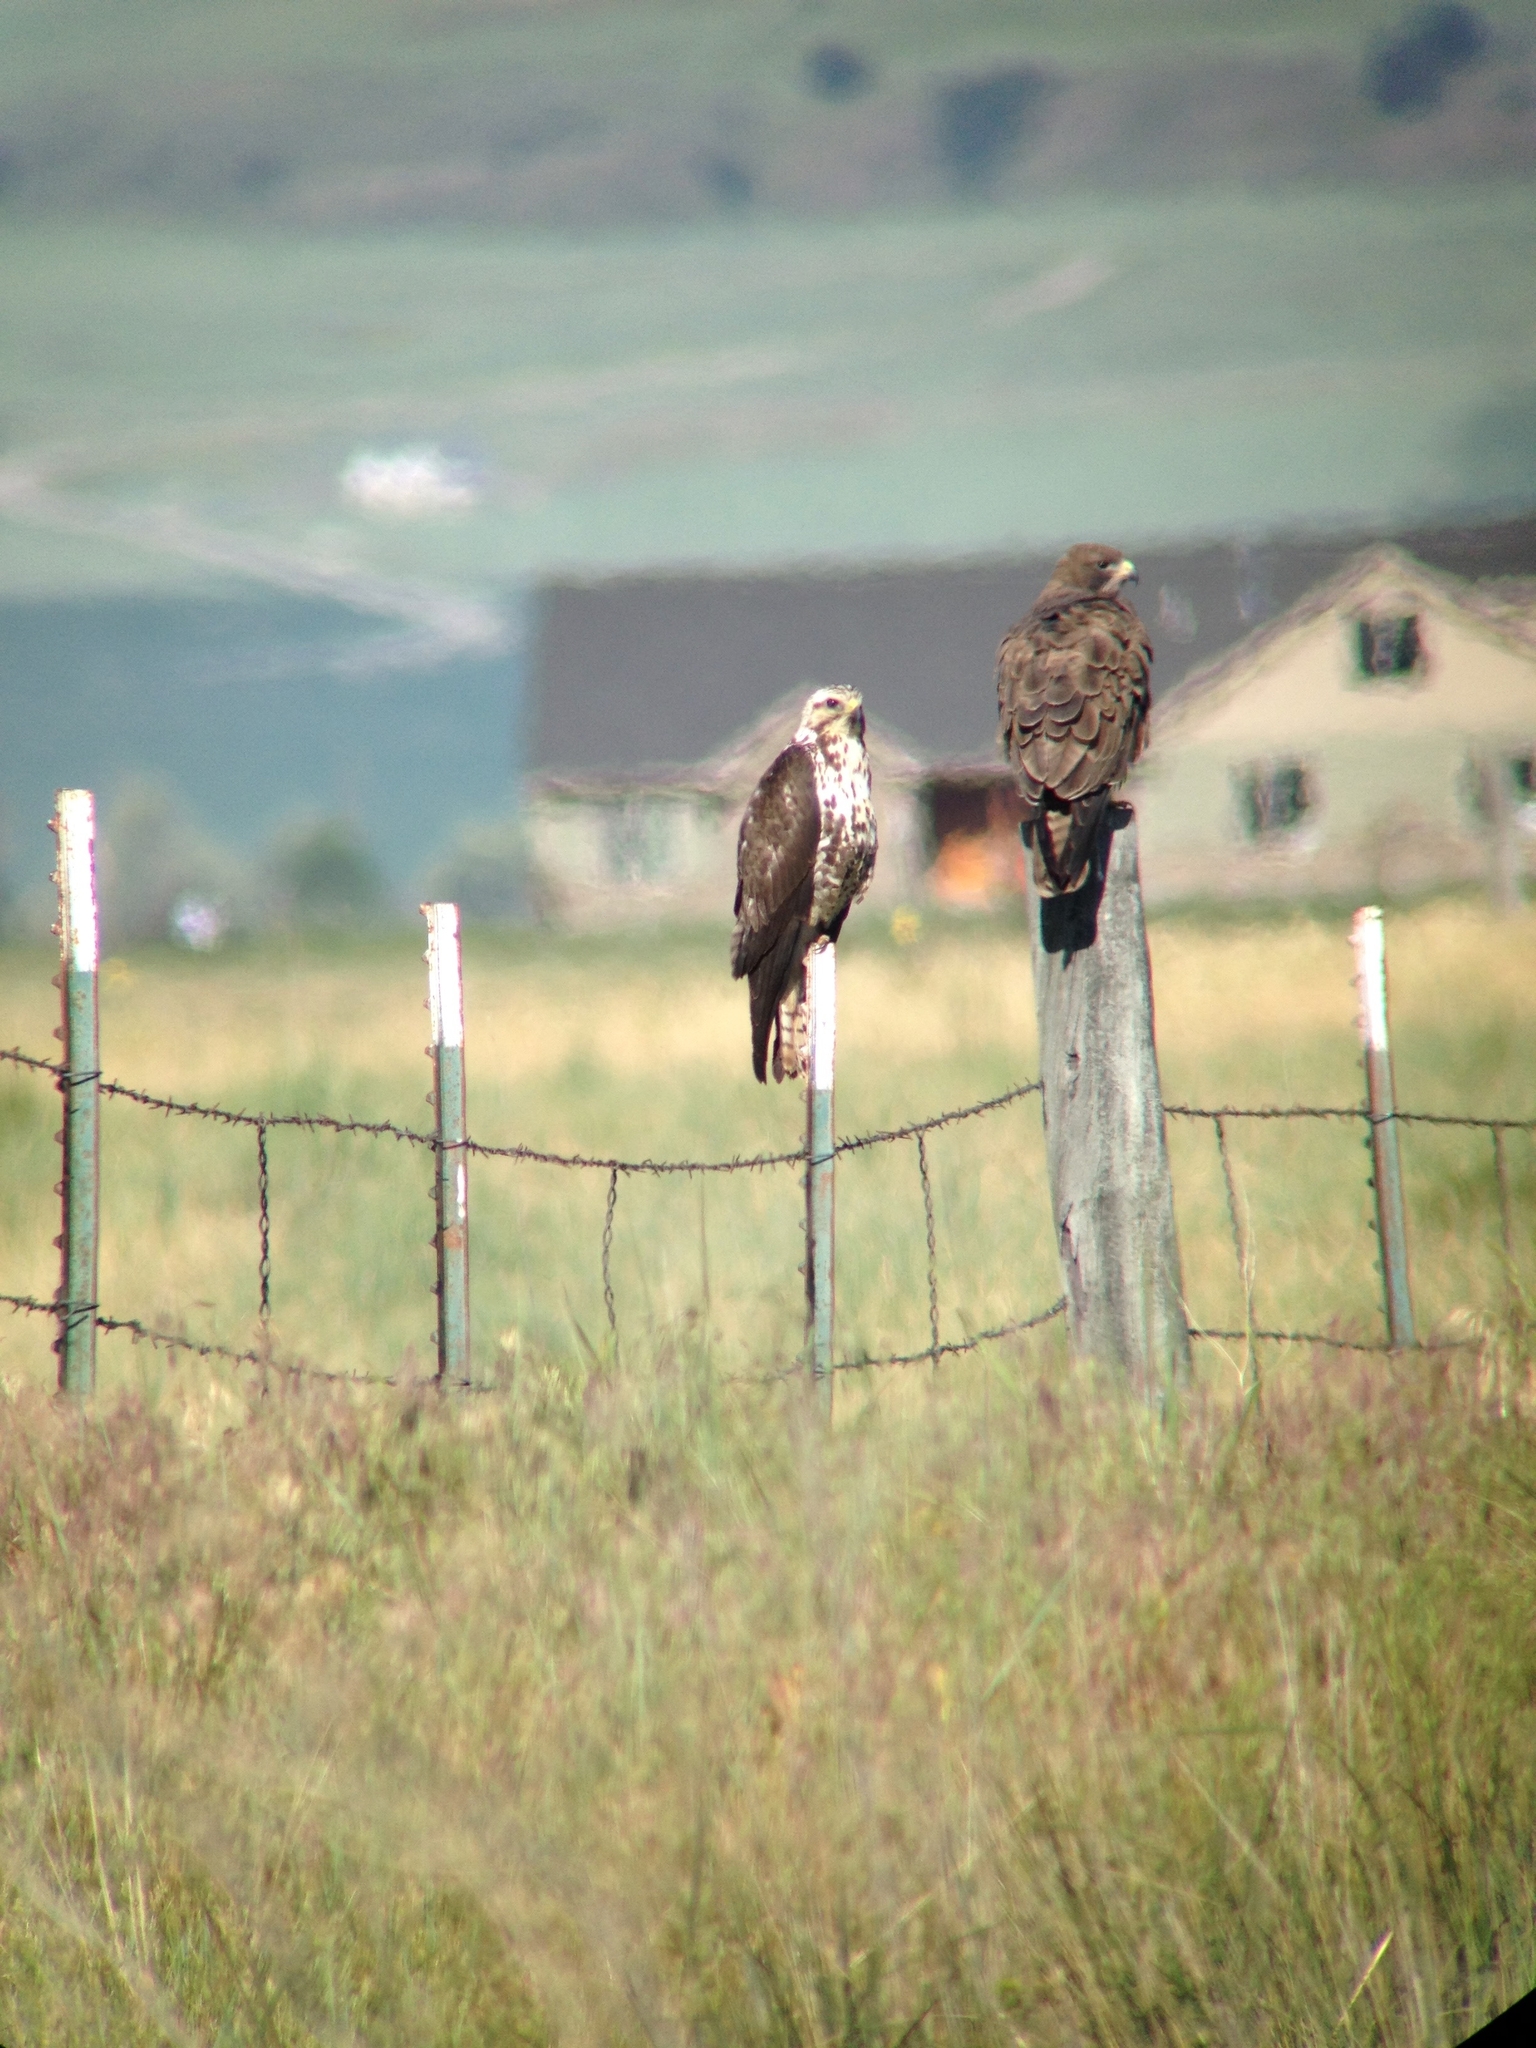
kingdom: Animalia
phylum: Chordata
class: Aves
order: Accipitriformes
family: Accipitridae
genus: Buteo
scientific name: Buteo swainsoni
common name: Swainson's hawk
